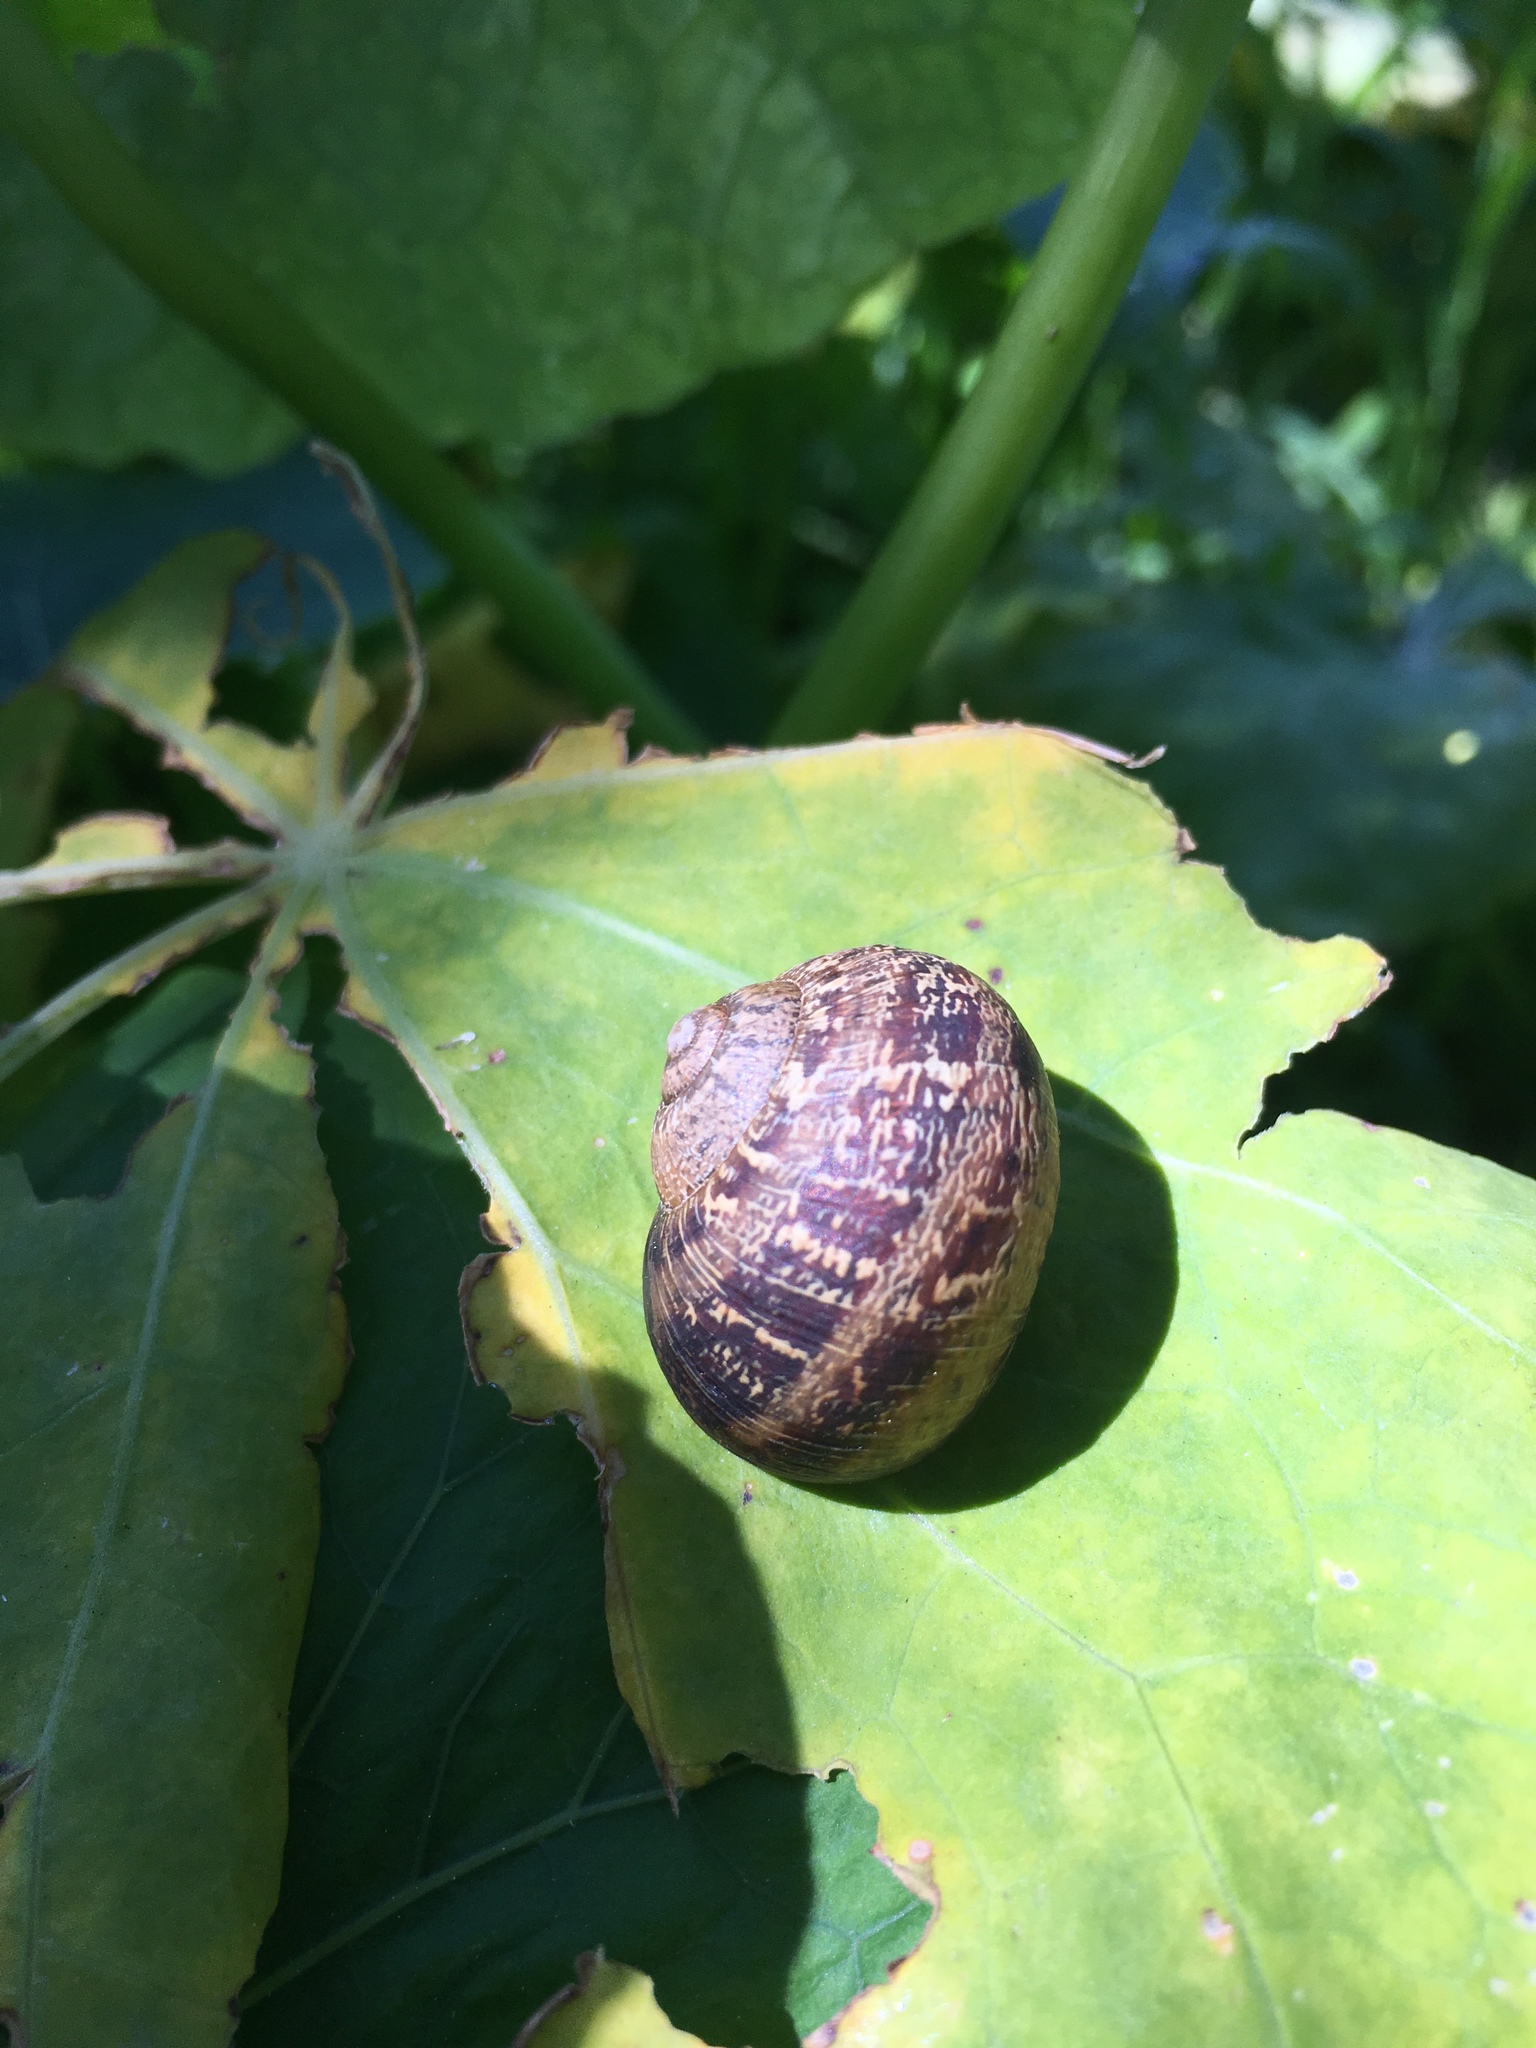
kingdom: Animalia
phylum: Mollusca
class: Gastropoda
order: Stylommatophora
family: Helicidae
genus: Cornu
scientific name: Cornu aspersum
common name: Brown garden snail
